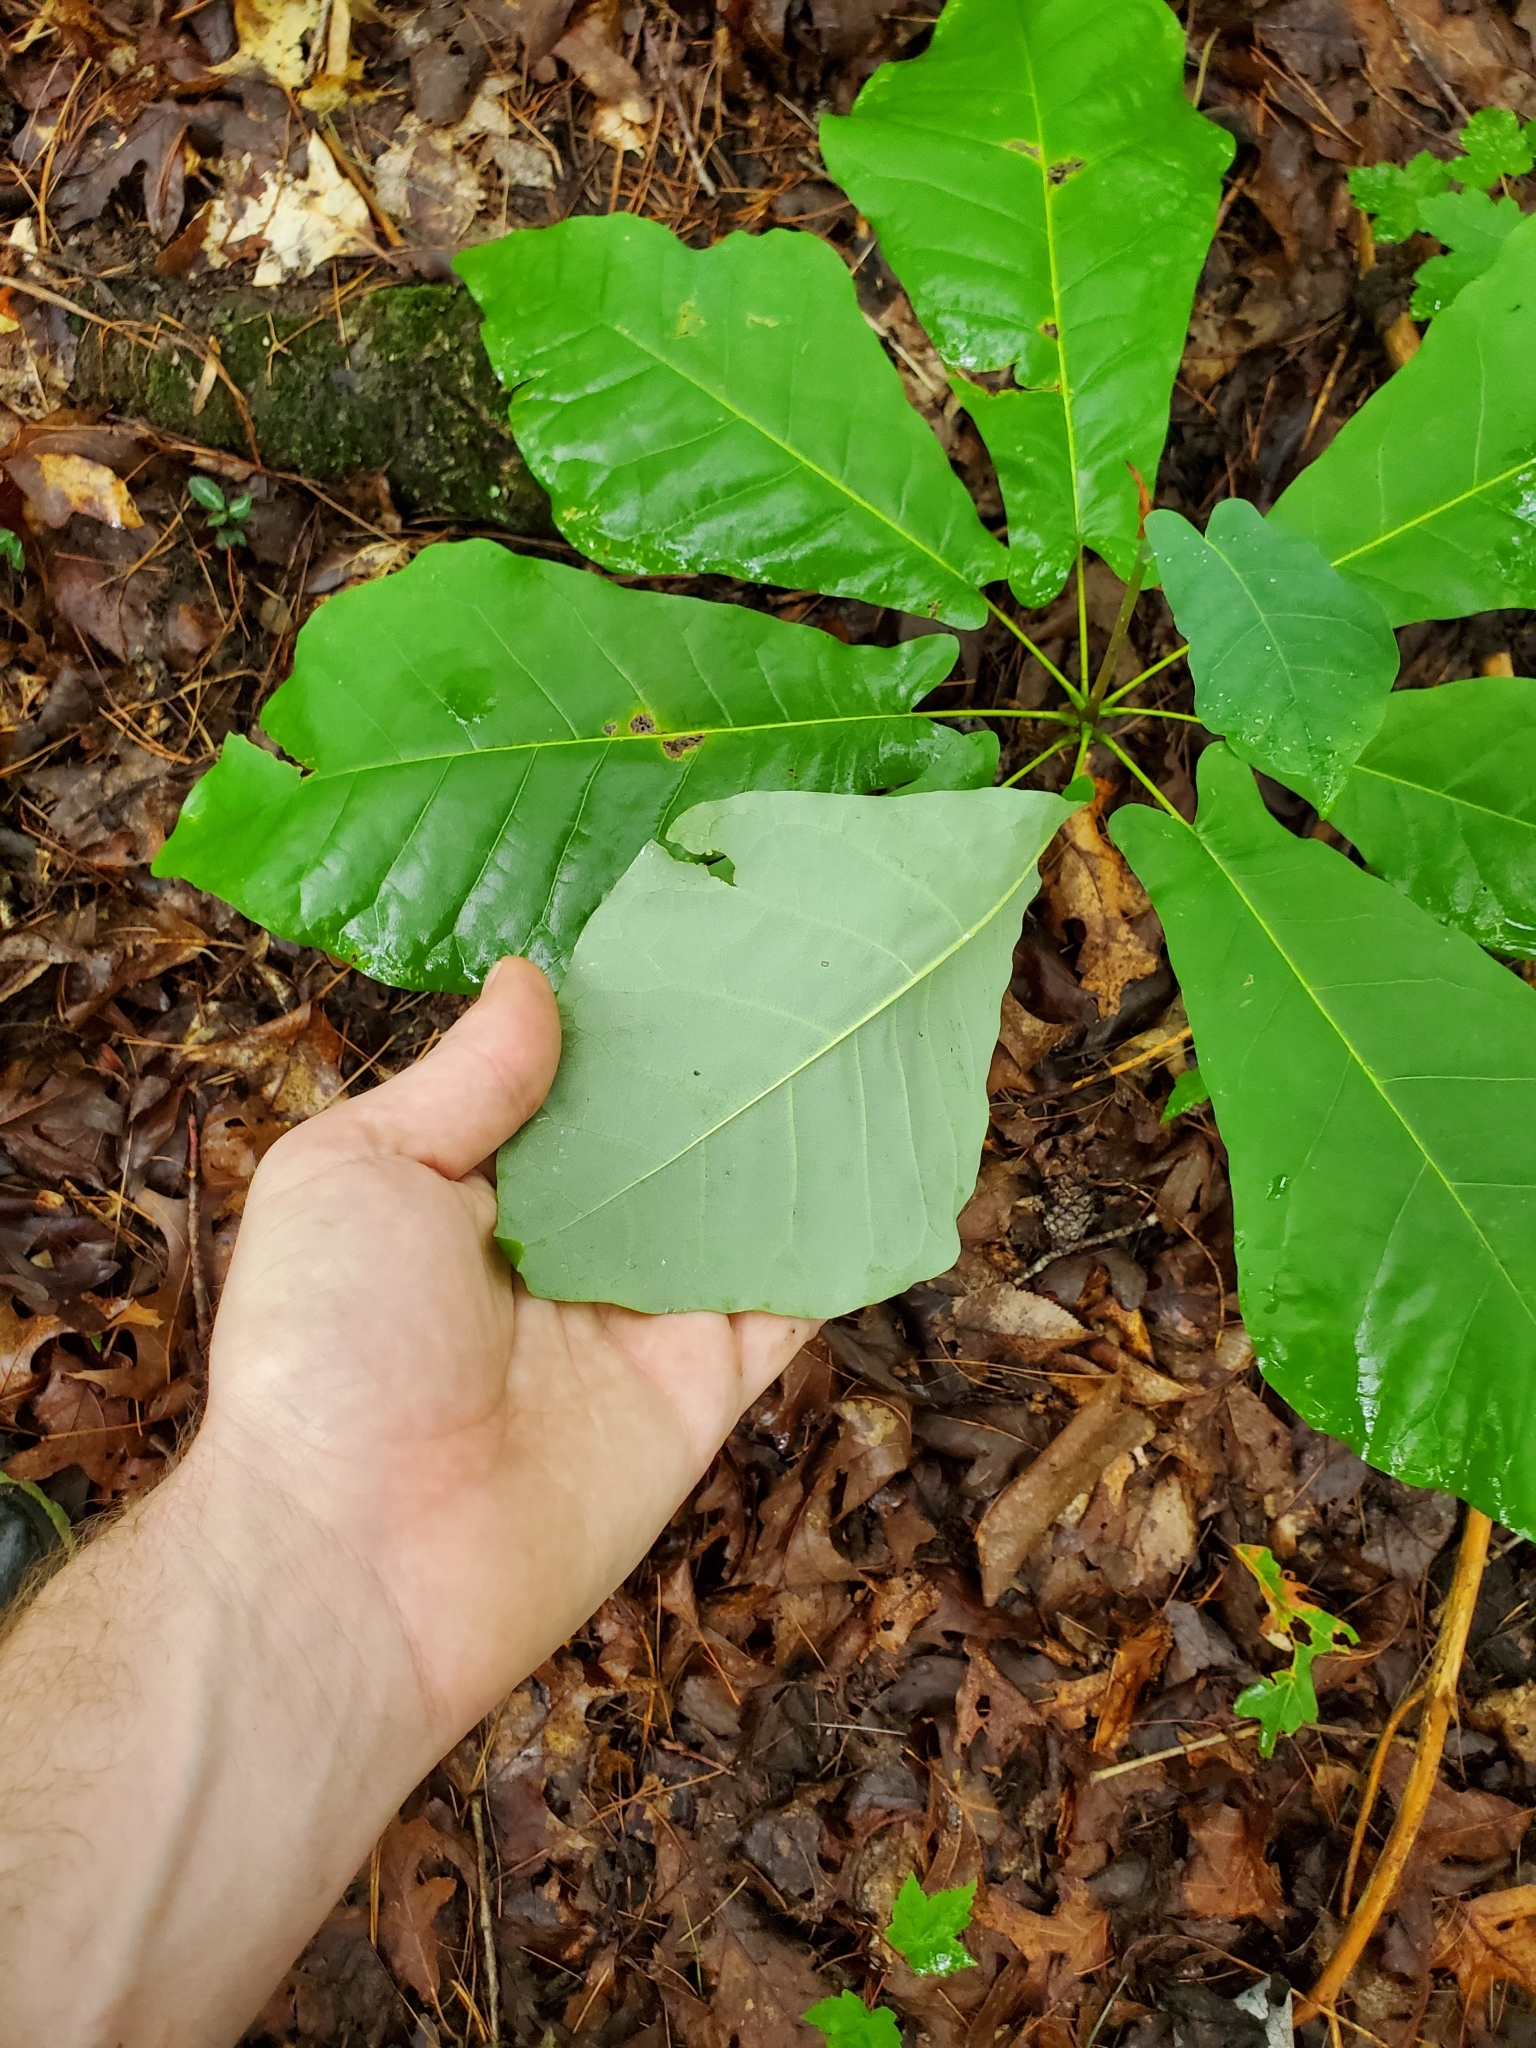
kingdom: Plantae
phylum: Tracheophyta
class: Magnoliopsida
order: Magnoliales
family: Magnoliaceae
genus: Magnolia
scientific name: Magnolia fraseri
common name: Fraser's magnolia
